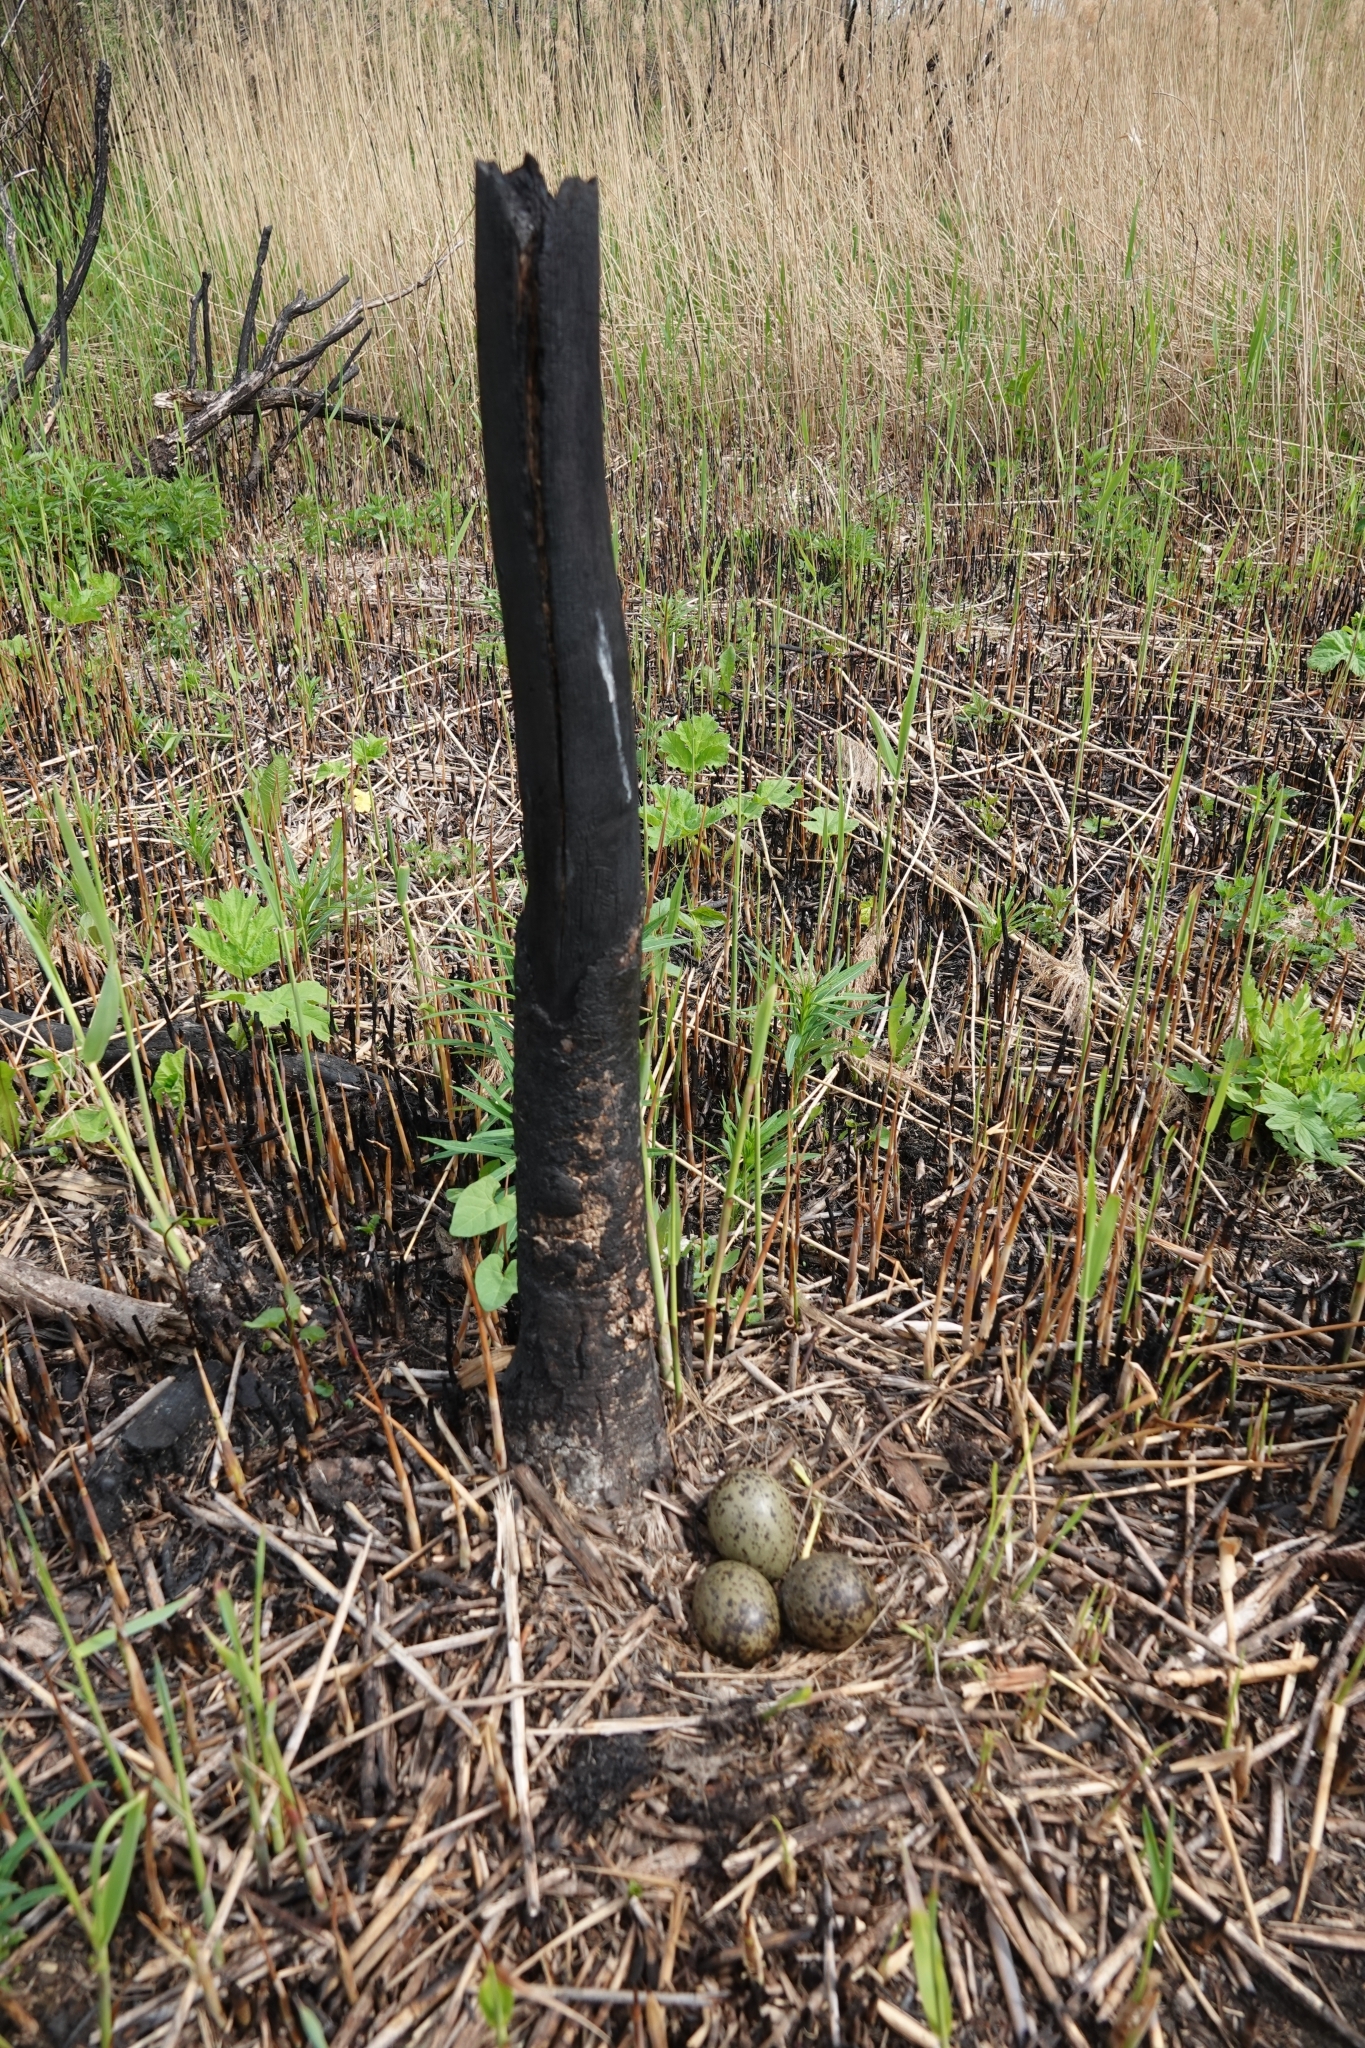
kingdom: Animalia
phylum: Chordata
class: Aves
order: Charadriiformes
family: Laridae
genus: Larus
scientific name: Larus canus
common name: Mew gull
